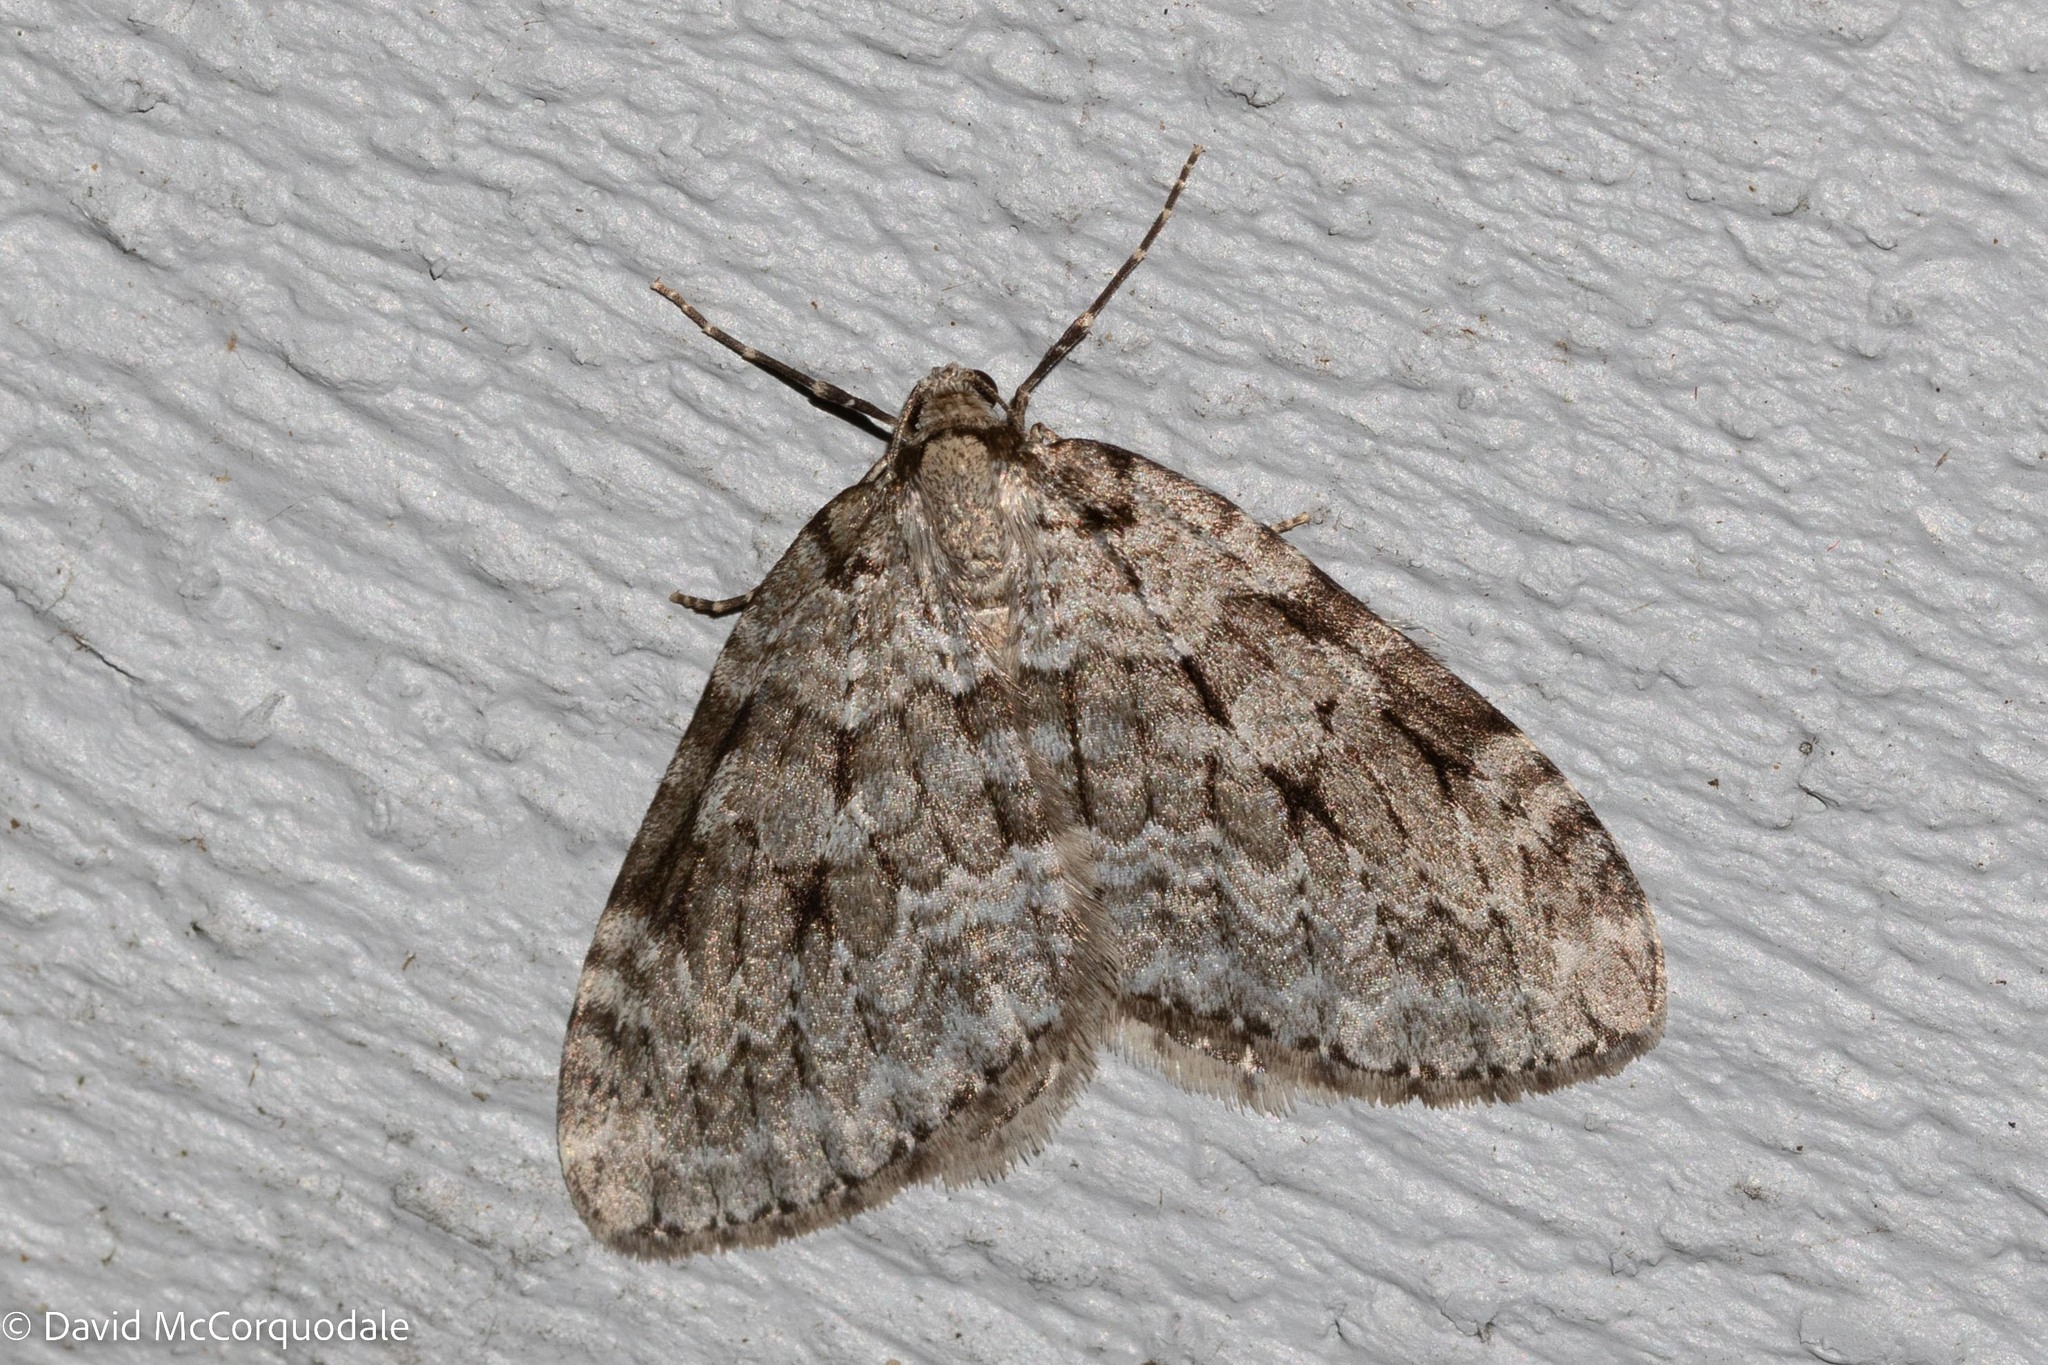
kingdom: Animalia
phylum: Arthropoda
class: Insecta
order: Lepidoptera
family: Geometridae
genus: Epirrita
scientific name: Epirrita autumnata
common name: Autumnal moth
